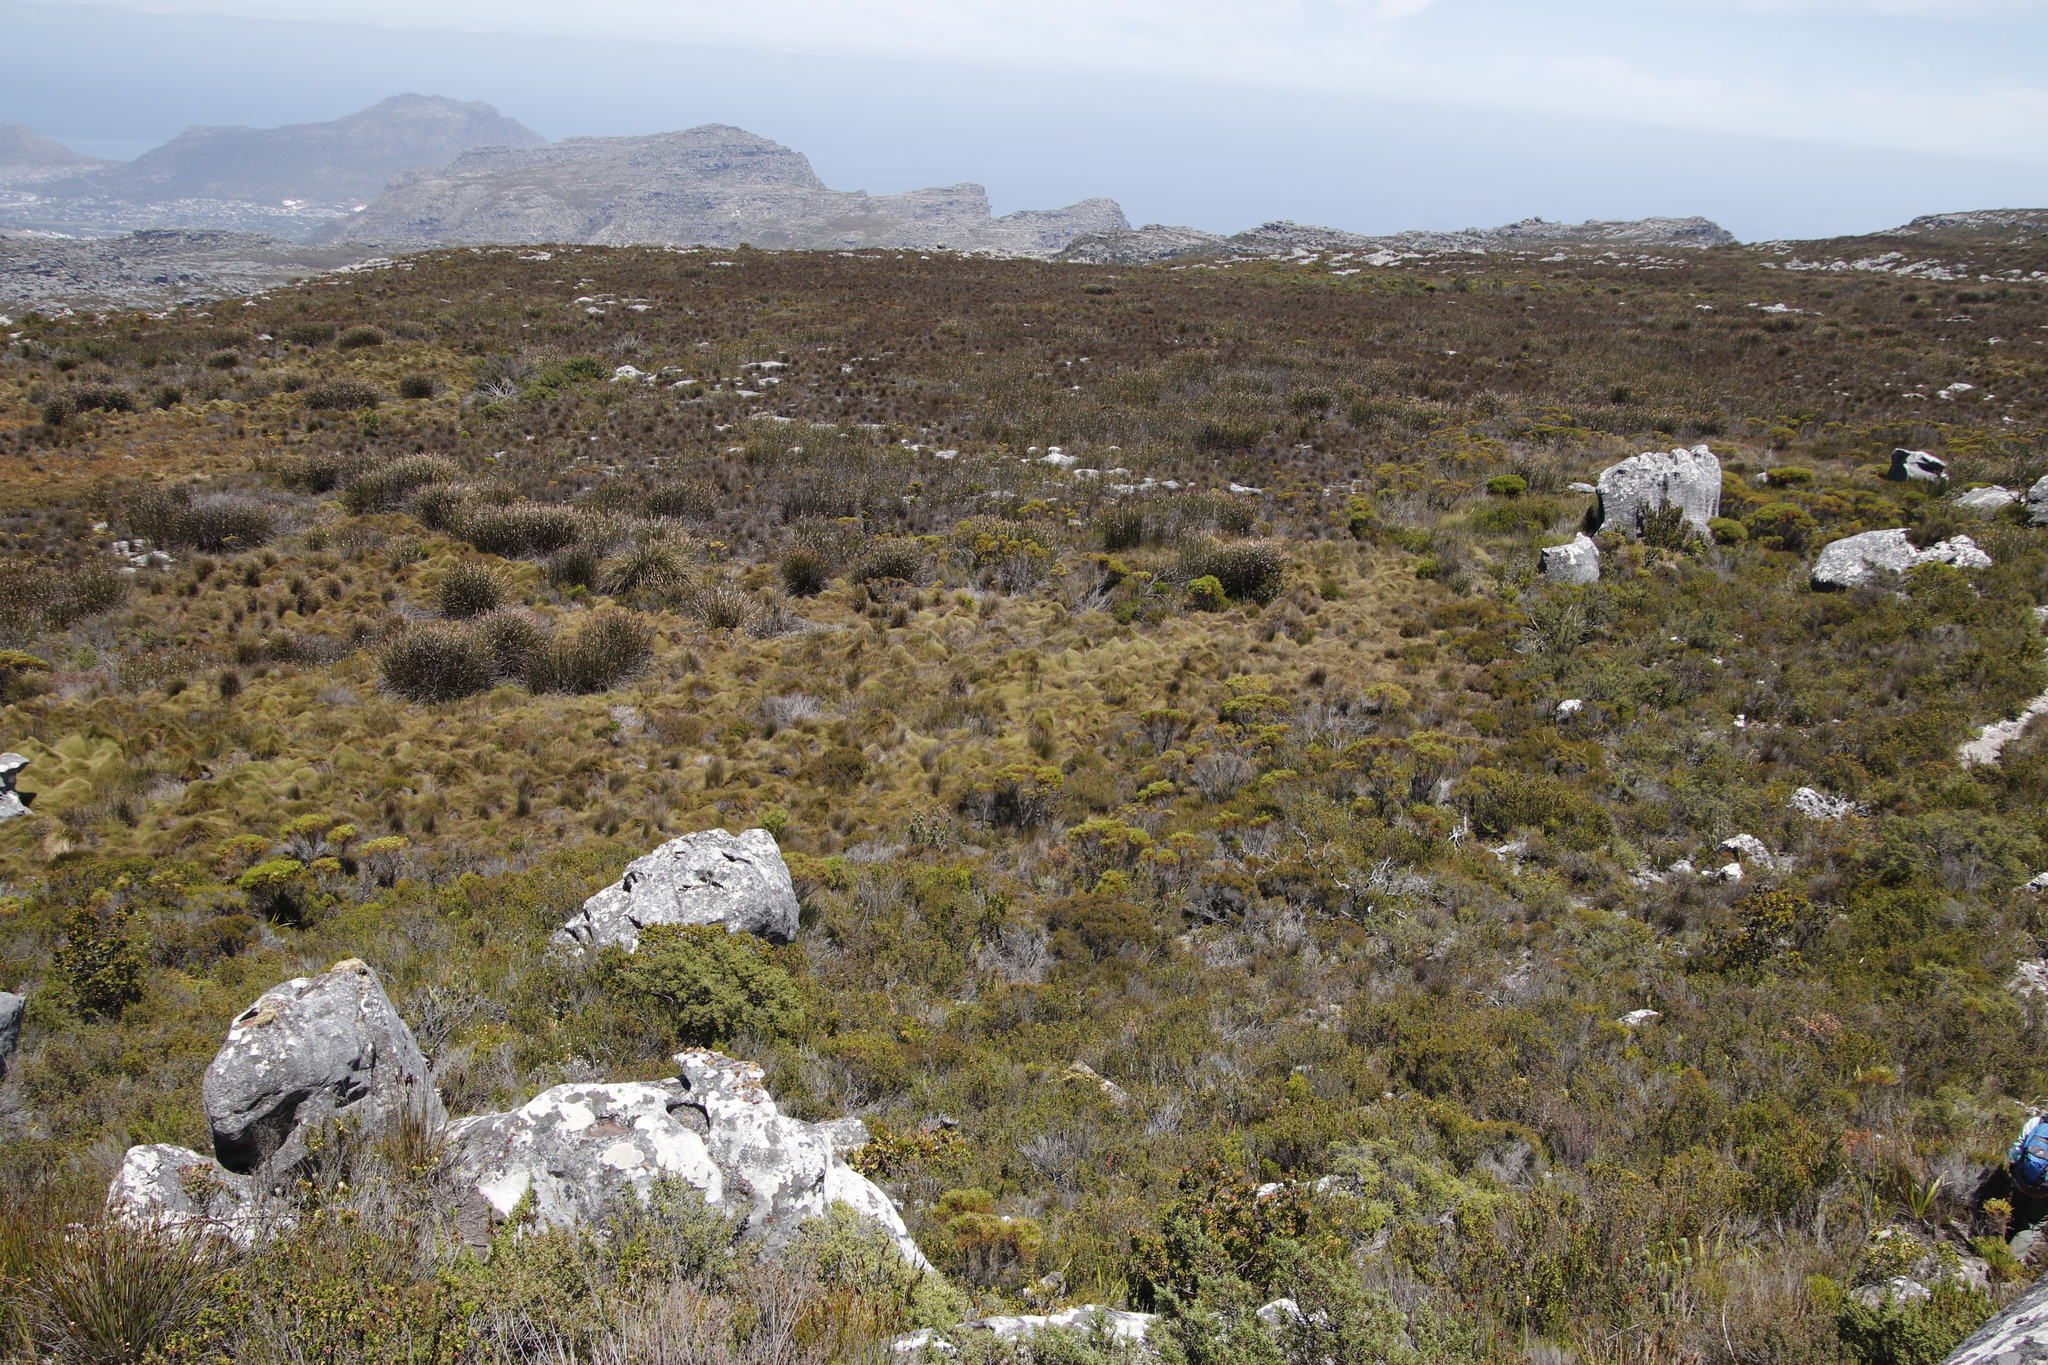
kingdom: Plantae
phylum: Tracheophyta
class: Liliopsida
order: Poales
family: Restionaceae
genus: Elegia
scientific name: Elegia mucronata
